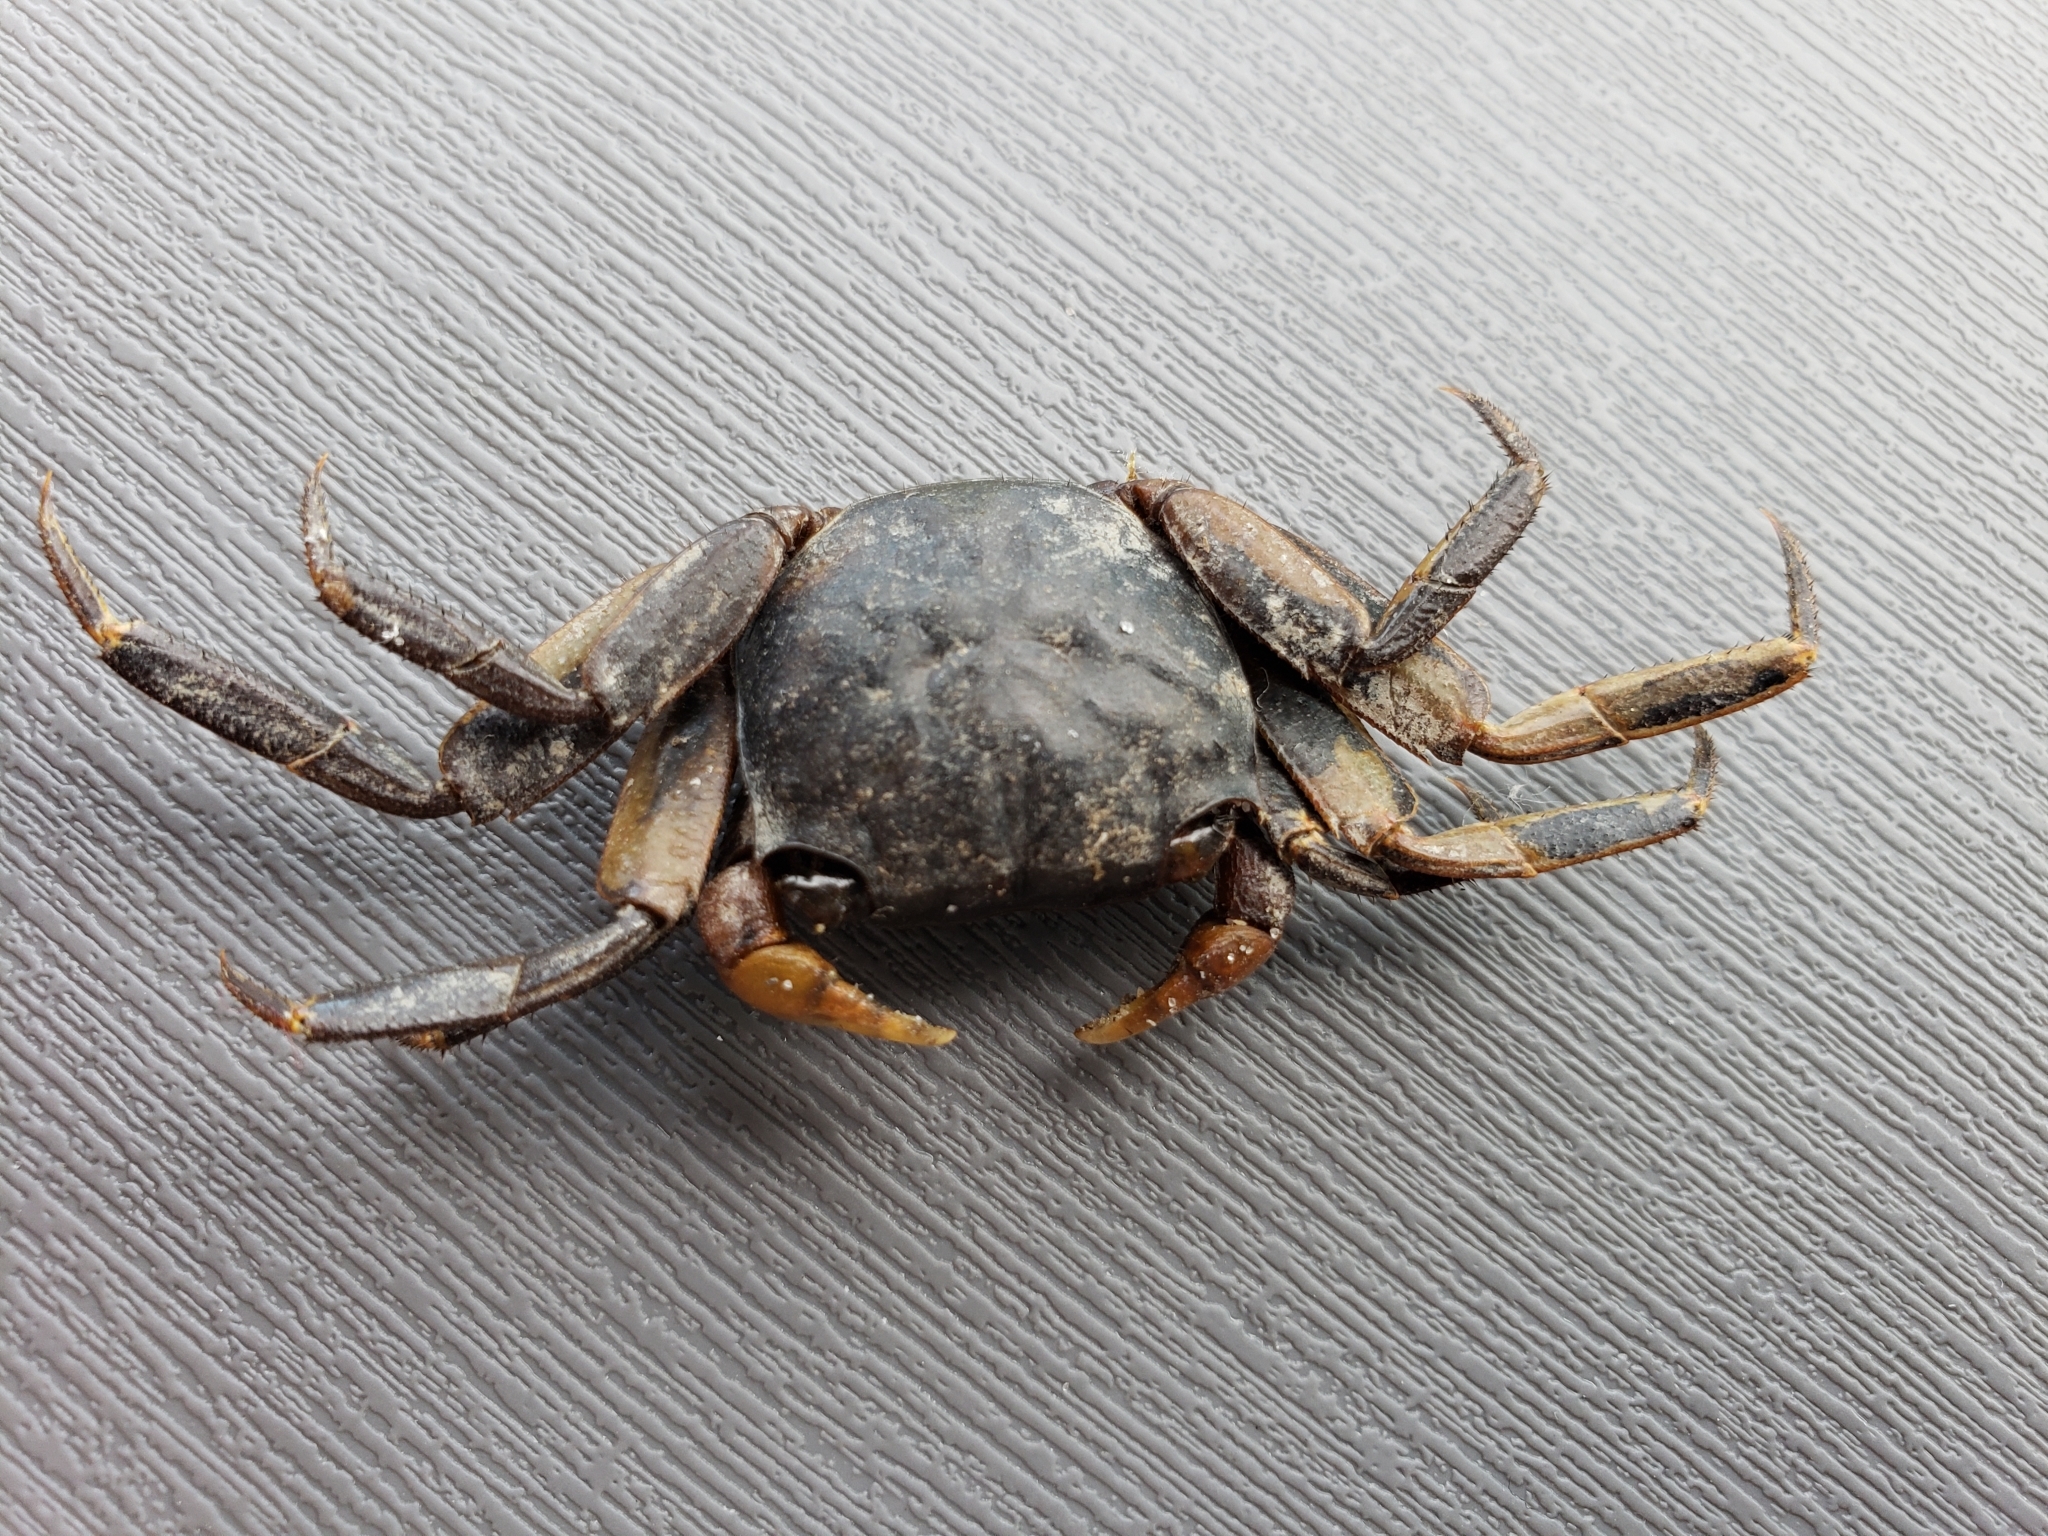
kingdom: Animalia
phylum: Arthropoda
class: Malacostraca
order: Decapoda
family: Sesarmidae
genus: Armases
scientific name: Armases cinereum
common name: Squareback marsh crab
